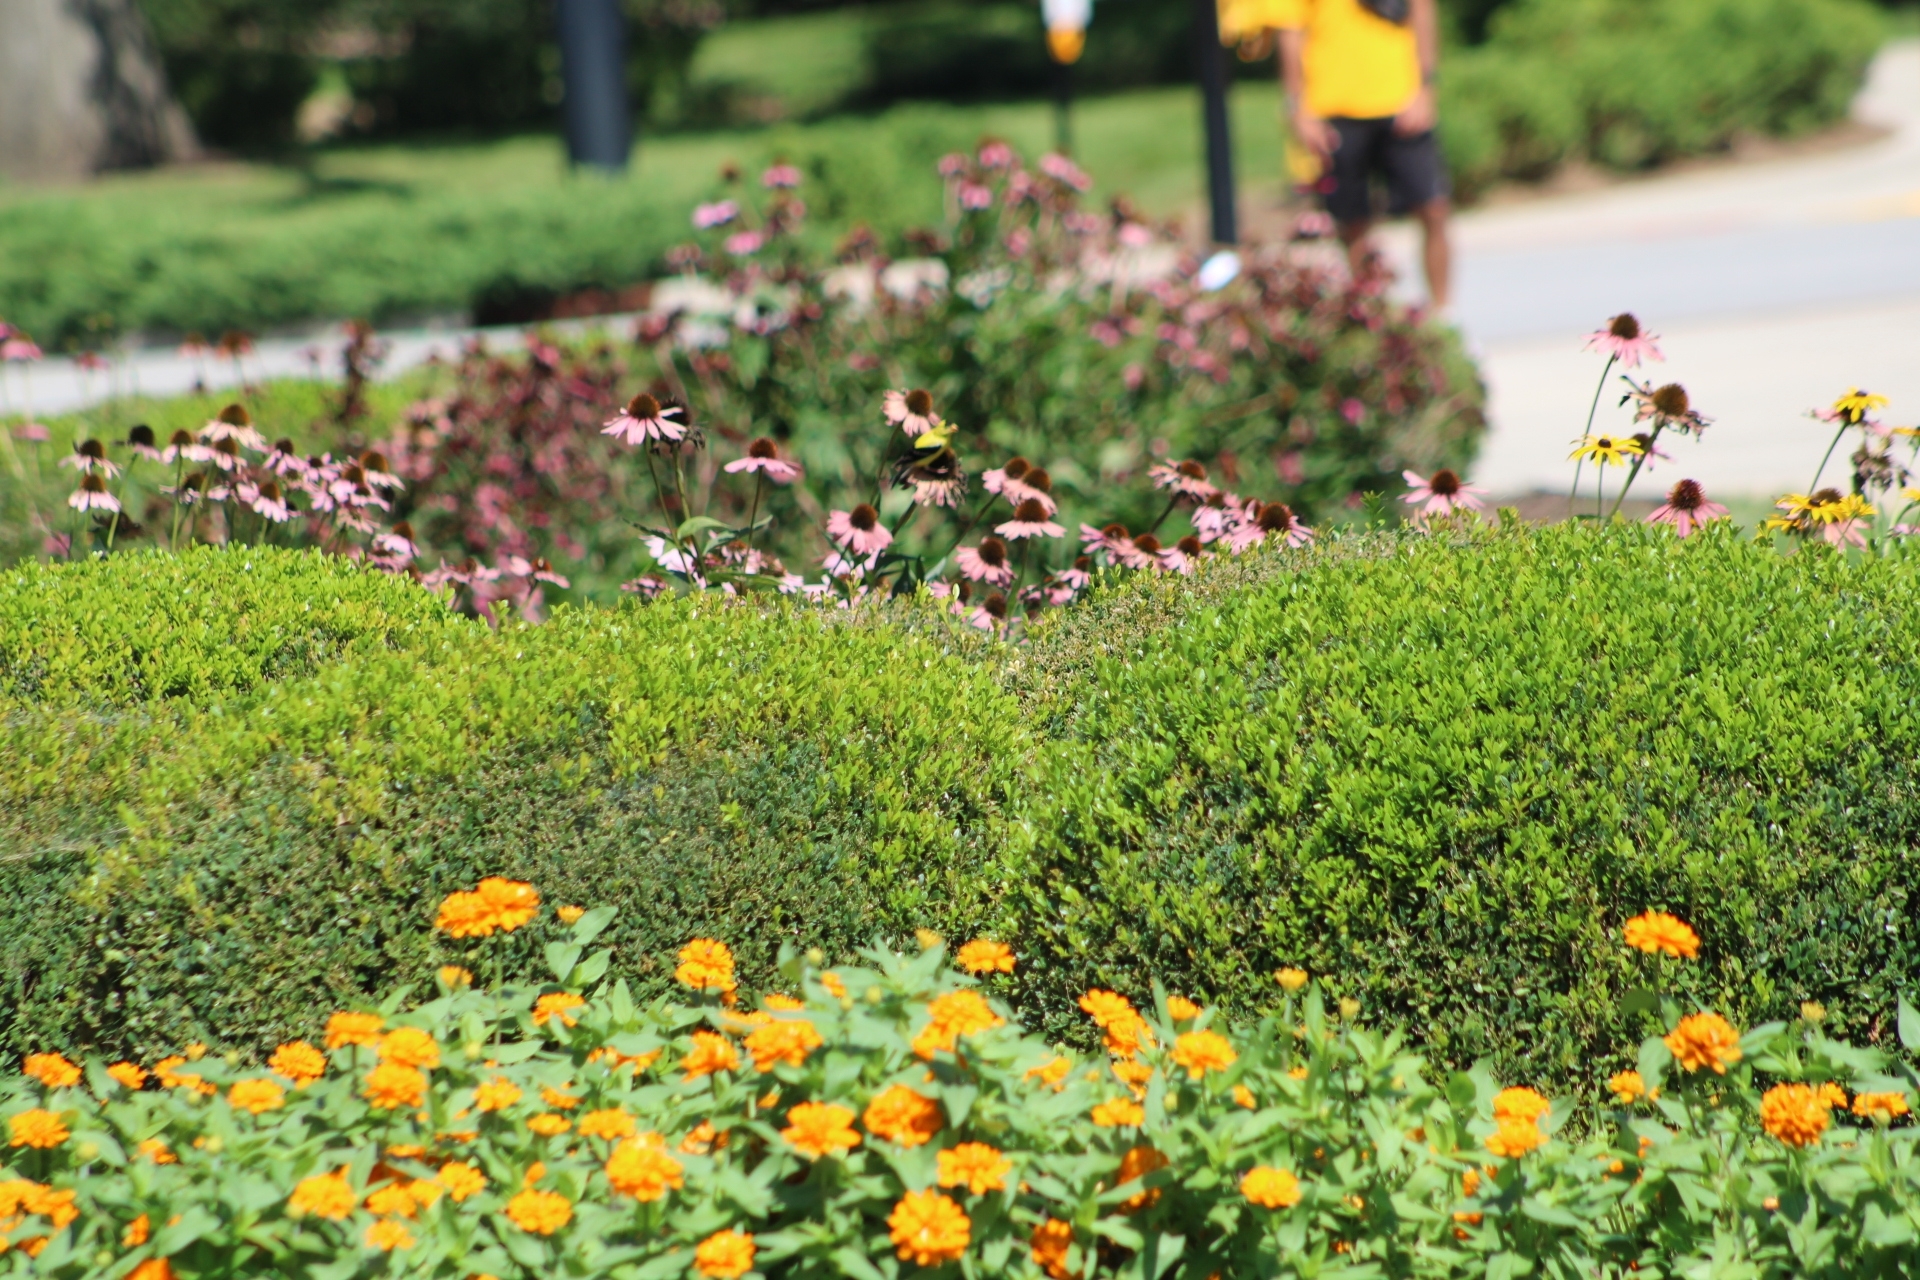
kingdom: Animalia
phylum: Chordata
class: Aves
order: Passeriformes
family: Fringillidae
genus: Spinus
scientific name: Spinus tristis
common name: American goldfinch
